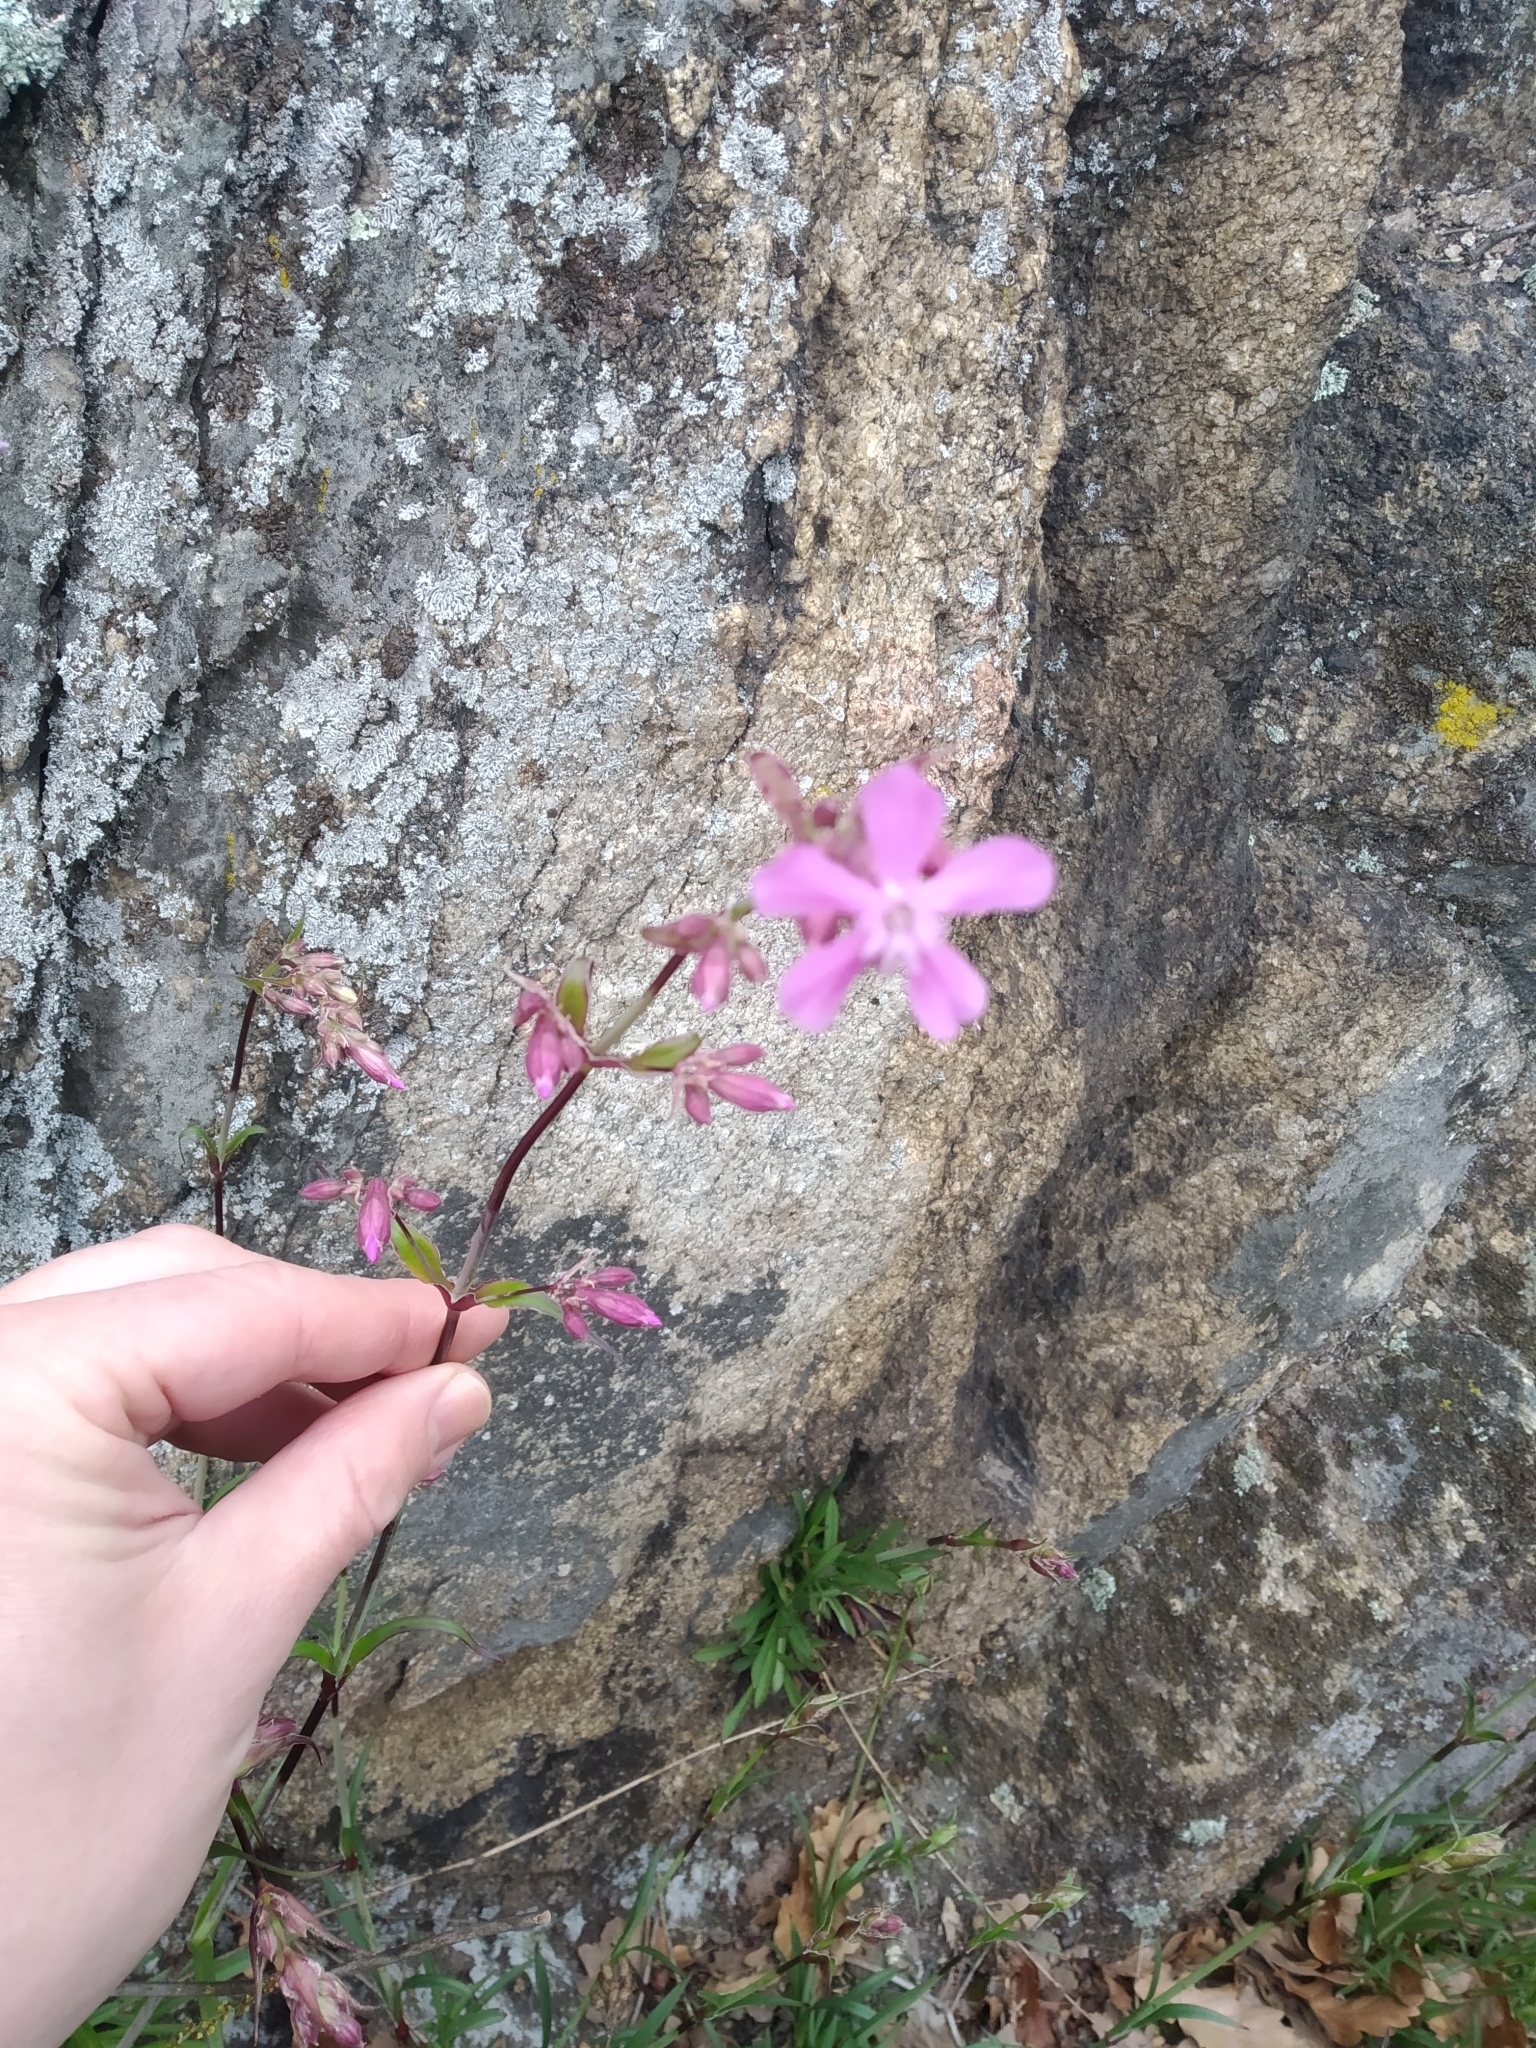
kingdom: Plantae
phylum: Tracheophyta
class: Magnoliopsida
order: Caryophyllales
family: Caryophyllaceae
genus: Viscaria
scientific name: Viscaria vulgaris
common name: Clammy campion
